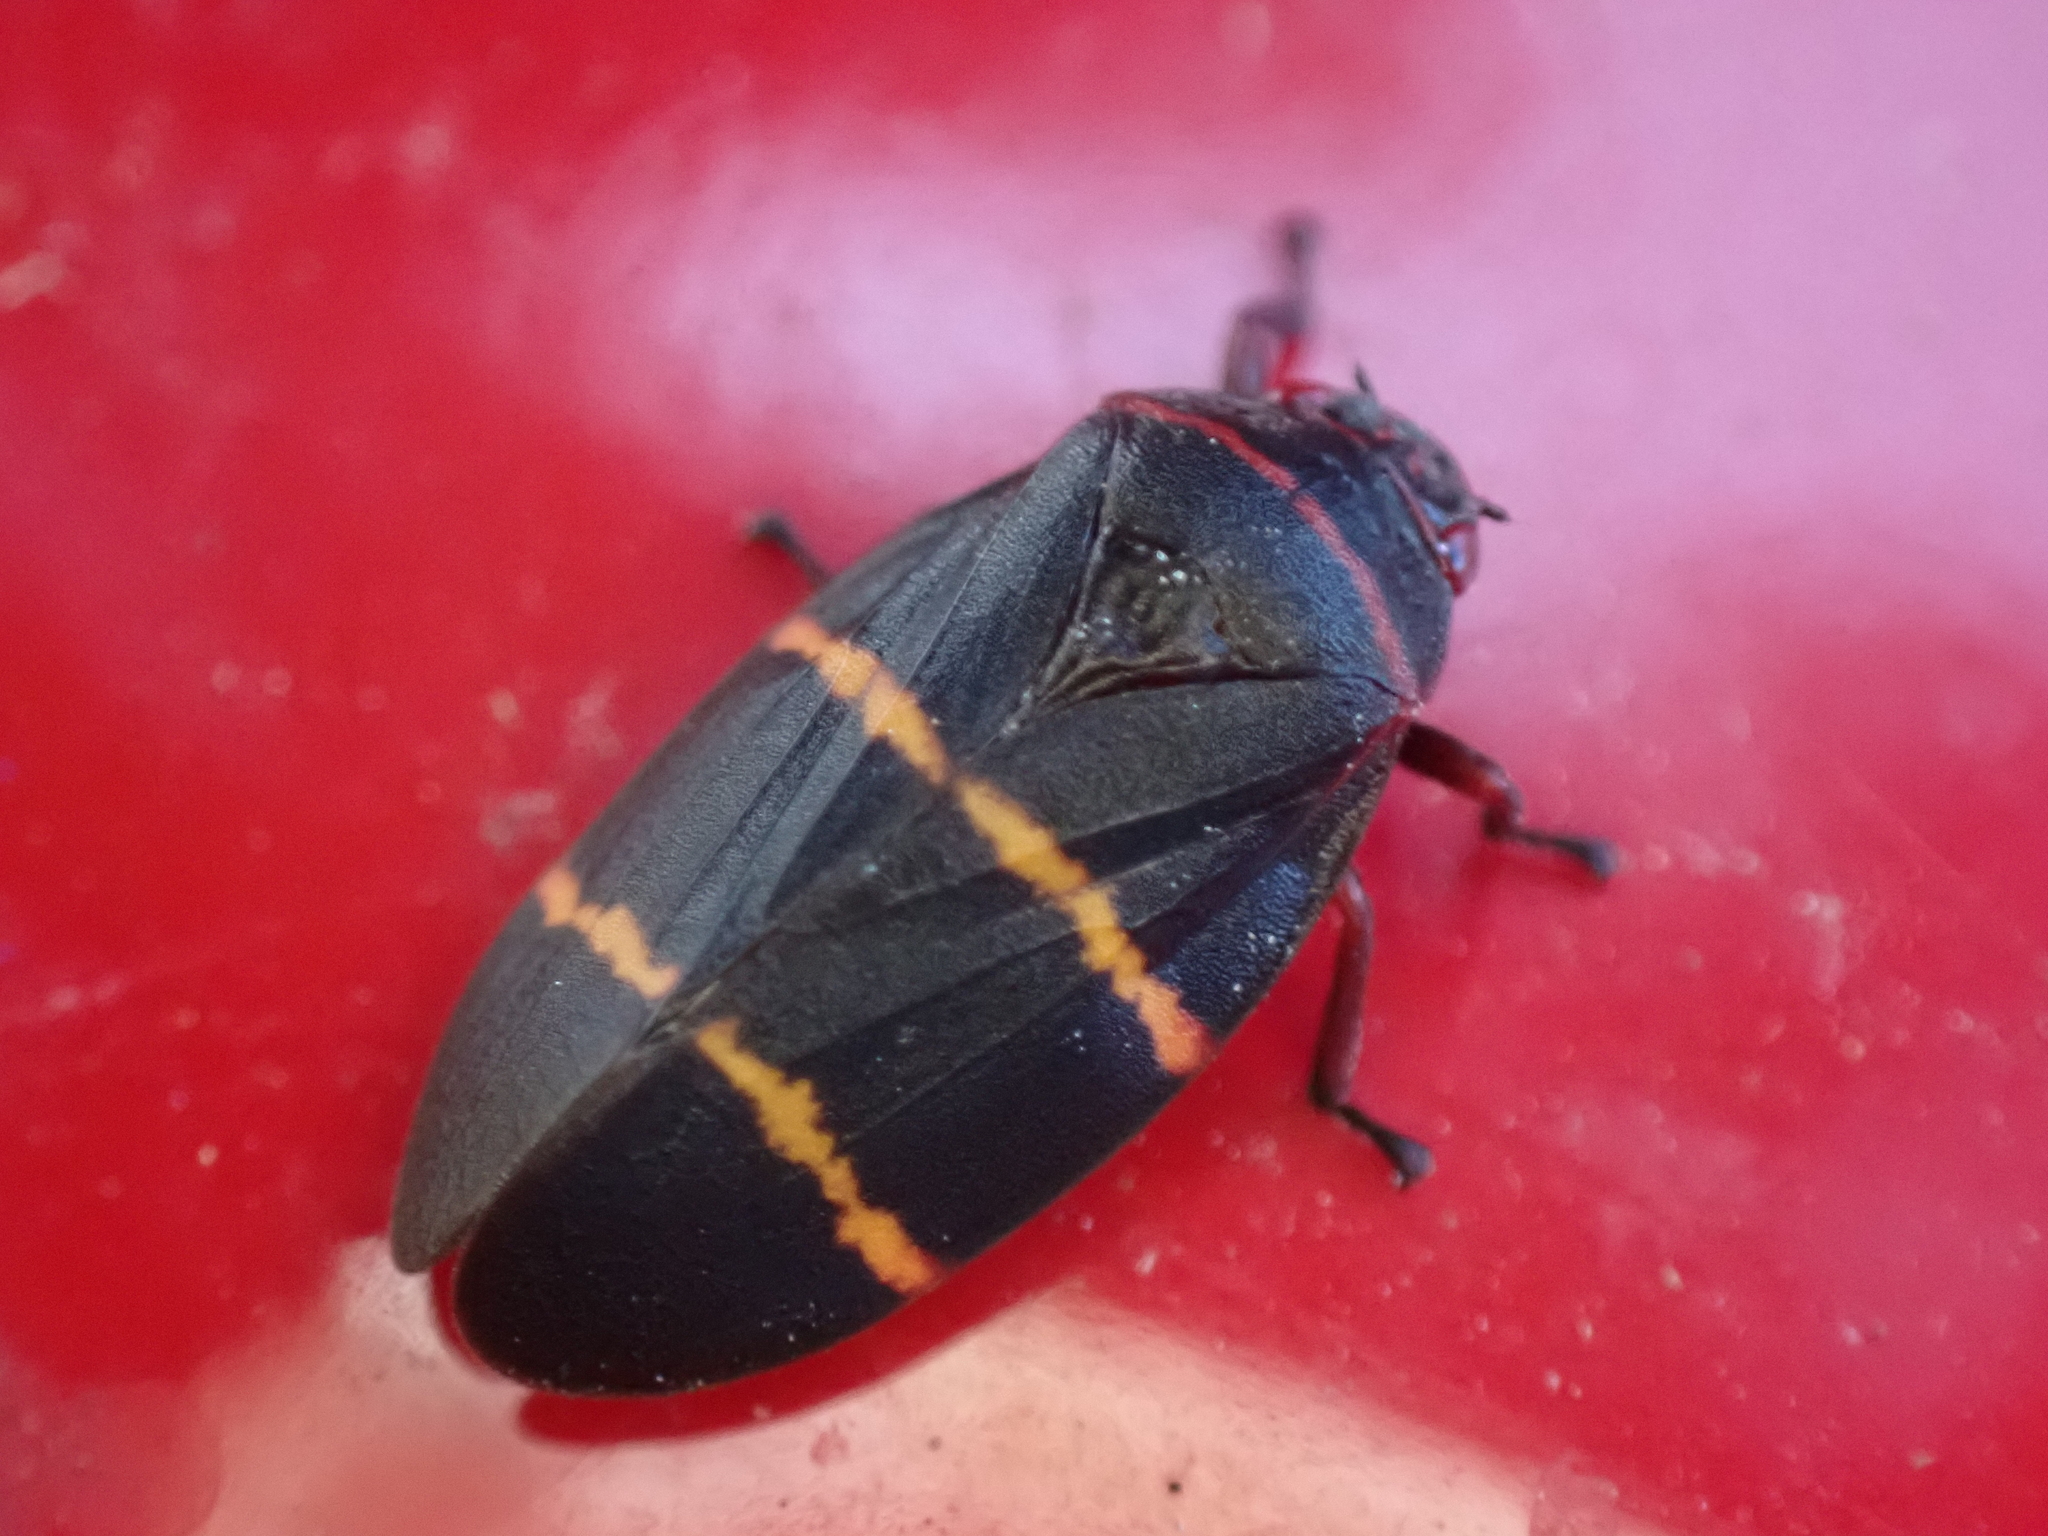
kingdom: Animalia
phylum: Arthropoda
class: Insecta
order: Hemiptera
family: Cercopidae
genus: Prosapia
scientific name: Prosapia bicincta
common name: Twolined spittlebug
